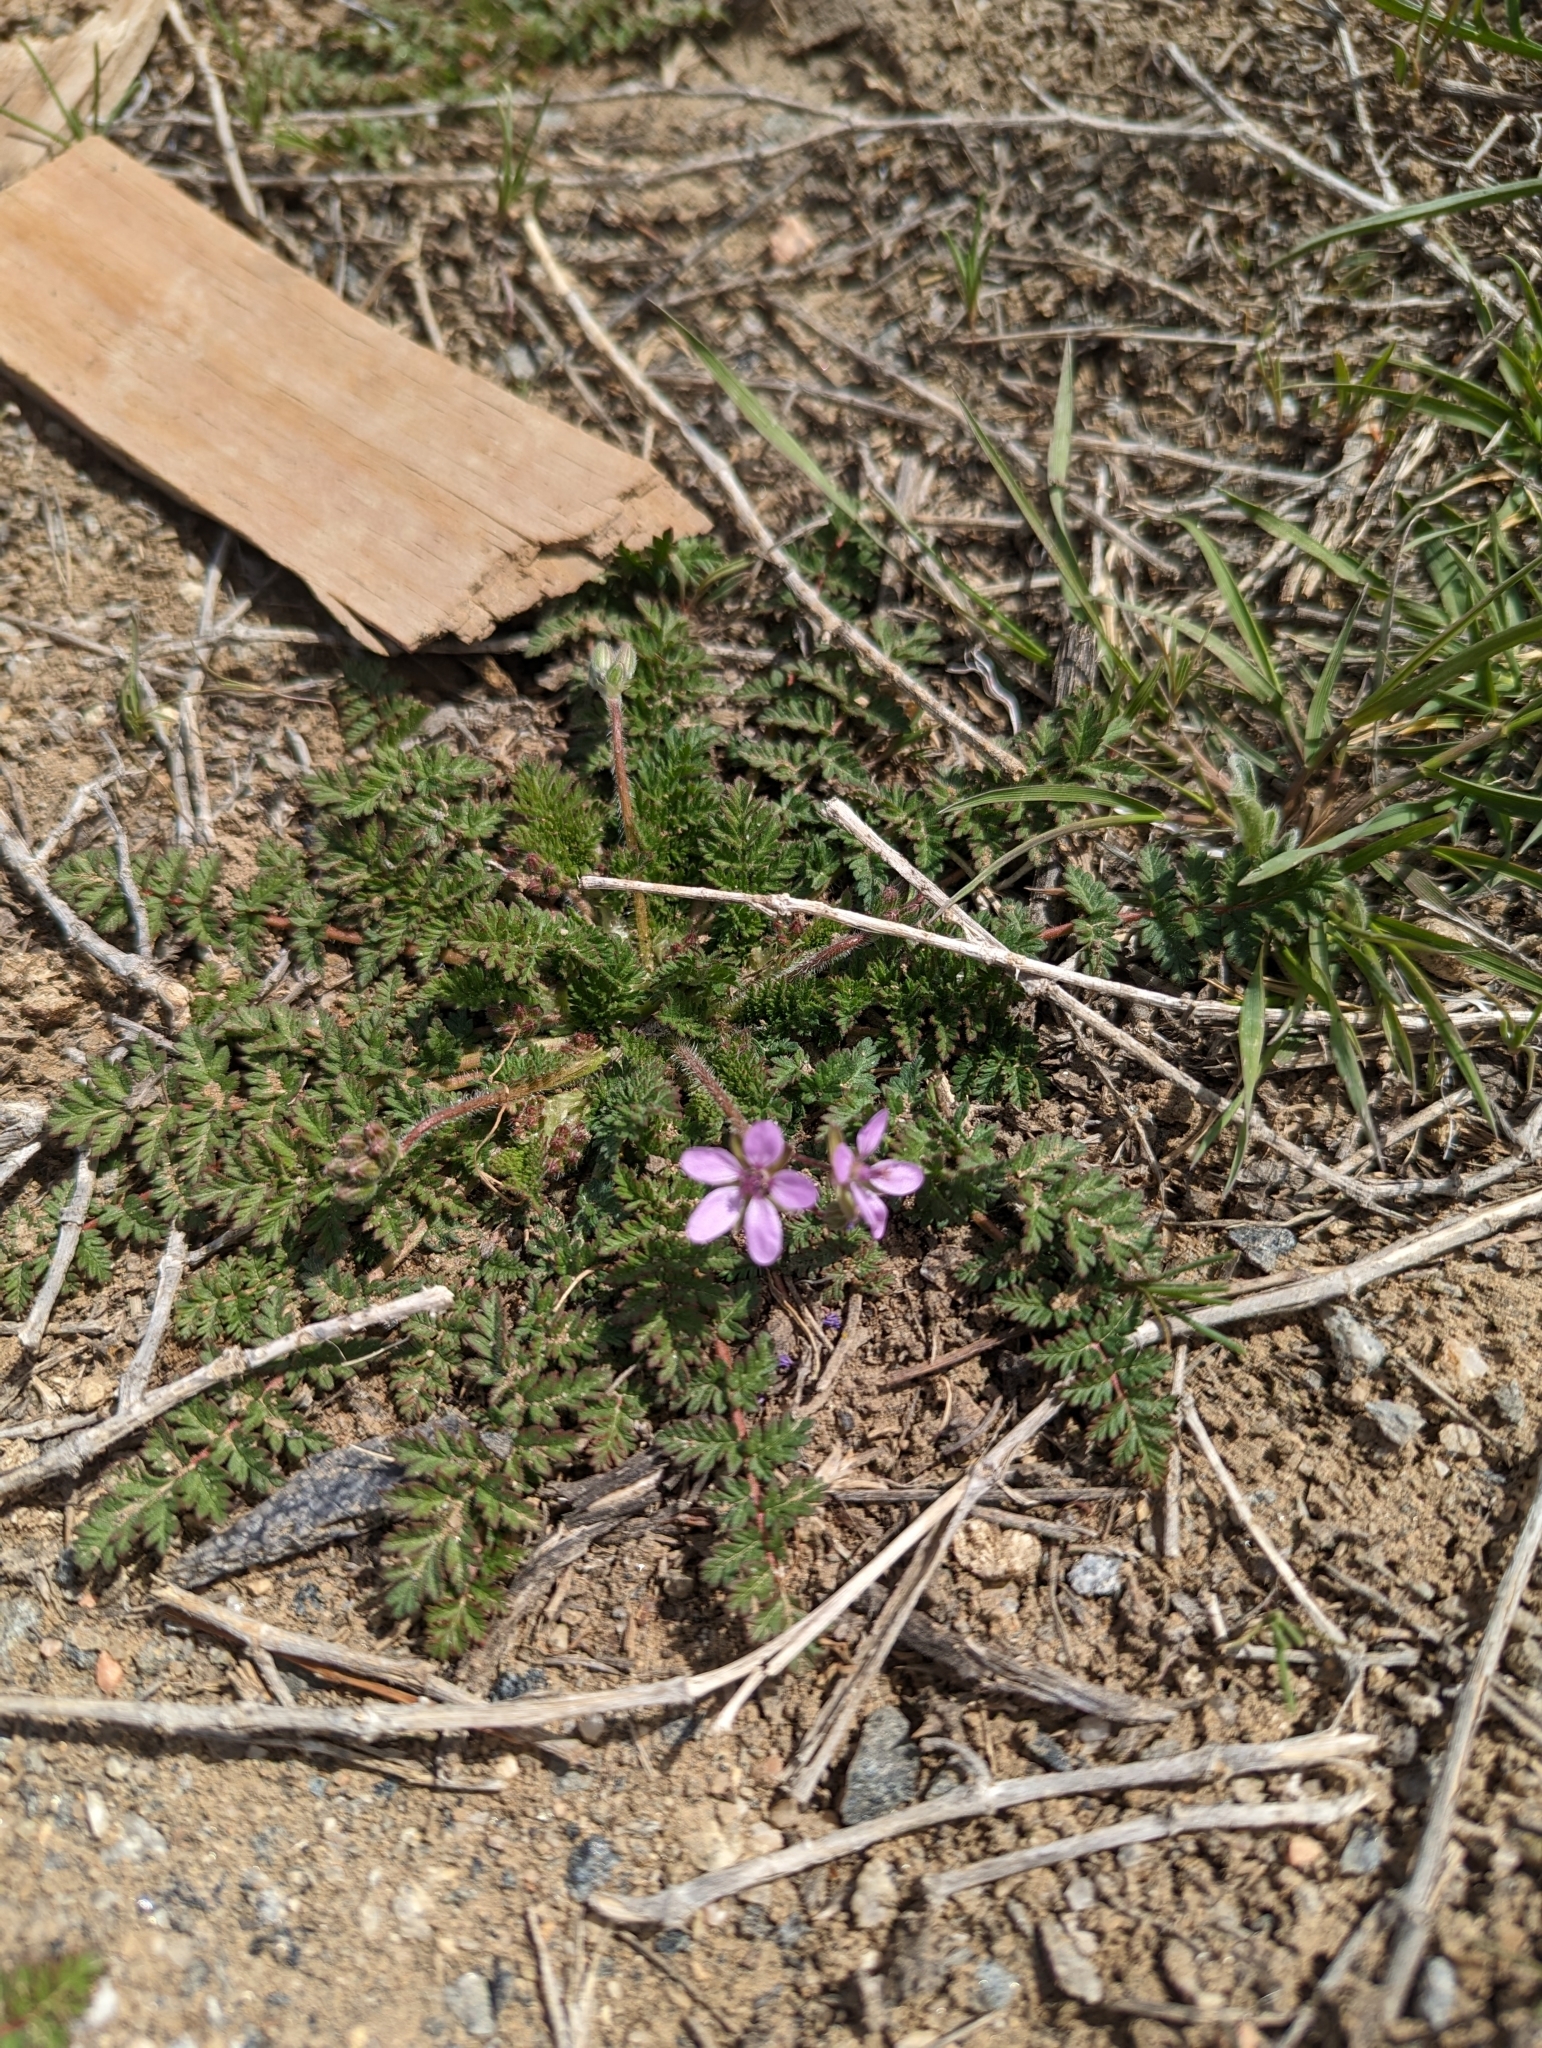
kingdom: Plantae
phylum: Tracheophyta
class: Magnoliopsida
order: Geraniales
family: Geraniaceae
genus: Erodium
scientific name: Erodium cicutarium
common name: Common stork's-bill
